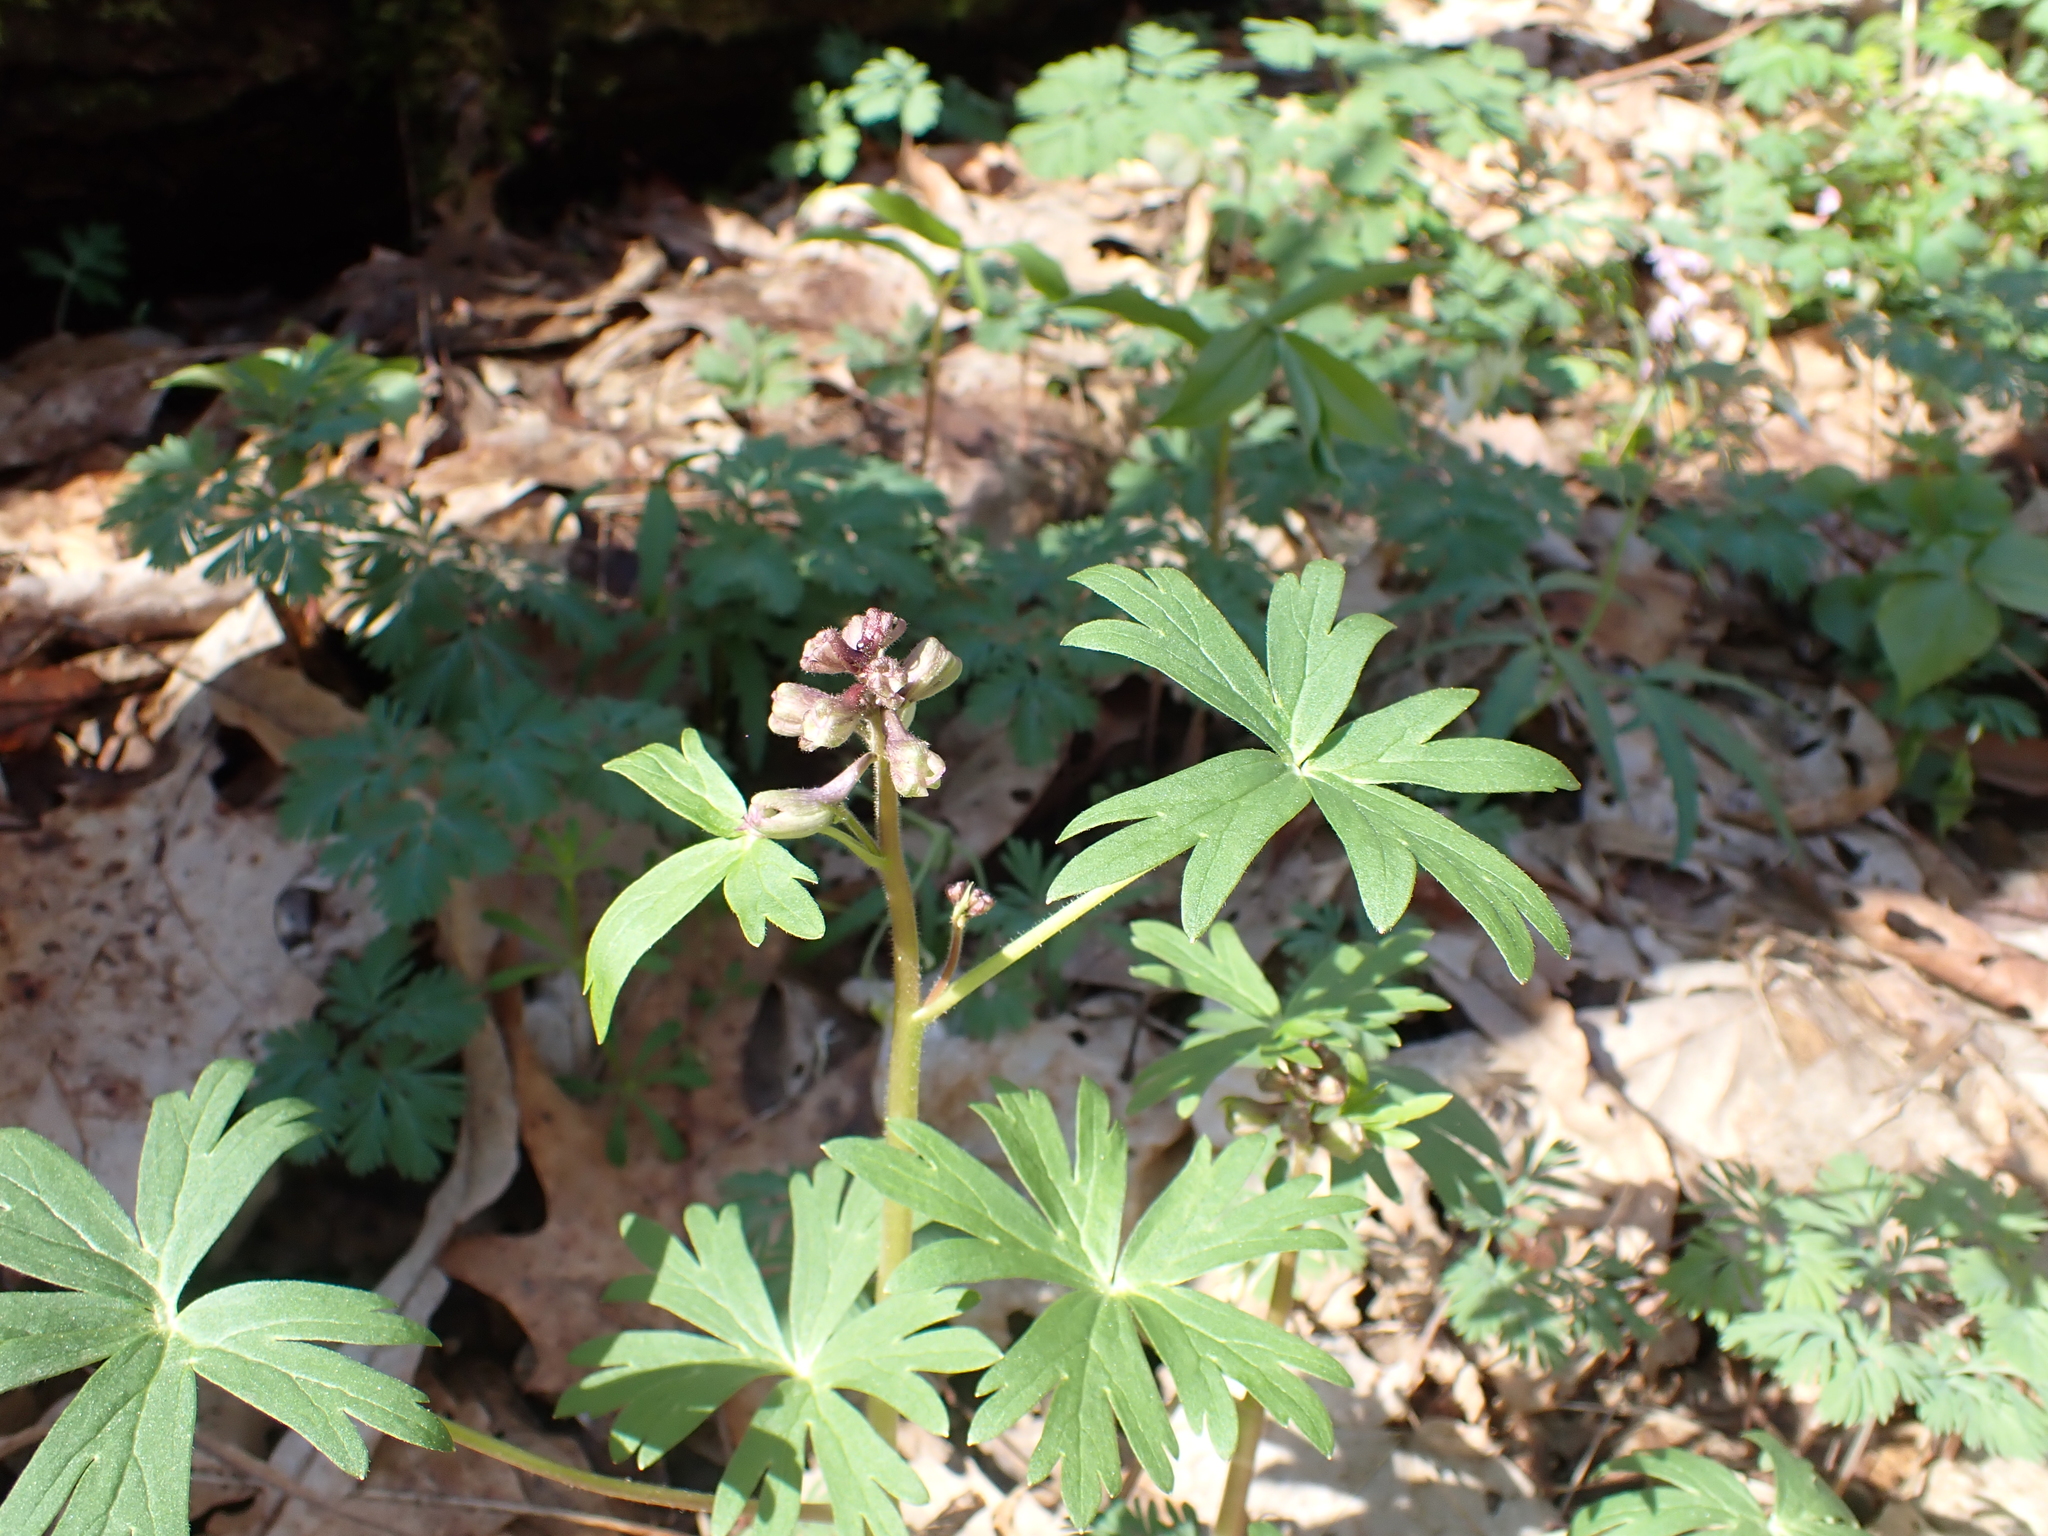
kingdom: Plantae
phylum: Tracheophyta
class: Magnoliopsida
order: Ranunculales
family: Ranunculaceae
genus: Delphinium
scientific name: Delphinium tricorne
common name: Dwarf larkspur
